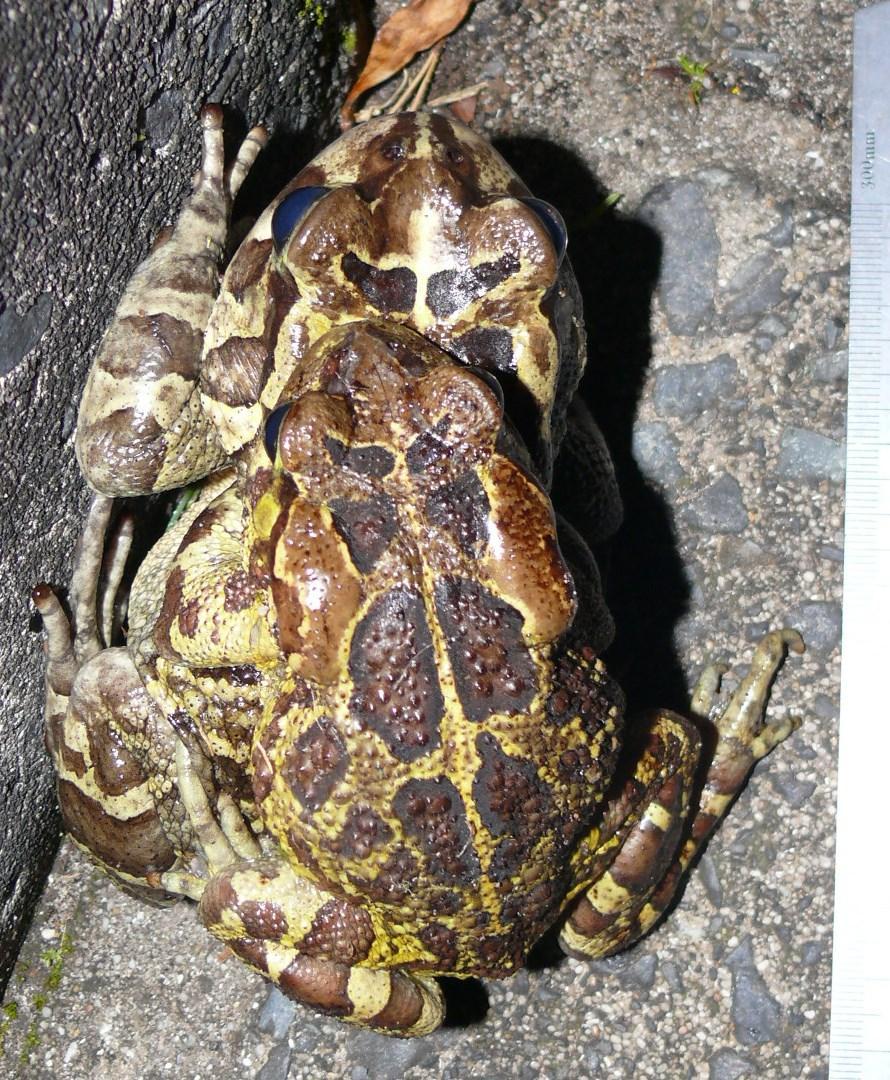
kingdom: Animalia
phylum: Chordata
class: Amphibia
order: Anura
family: Bufonidae
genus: Sclerophrys
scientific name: Sclerophrys pantherina
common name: Panther toad
